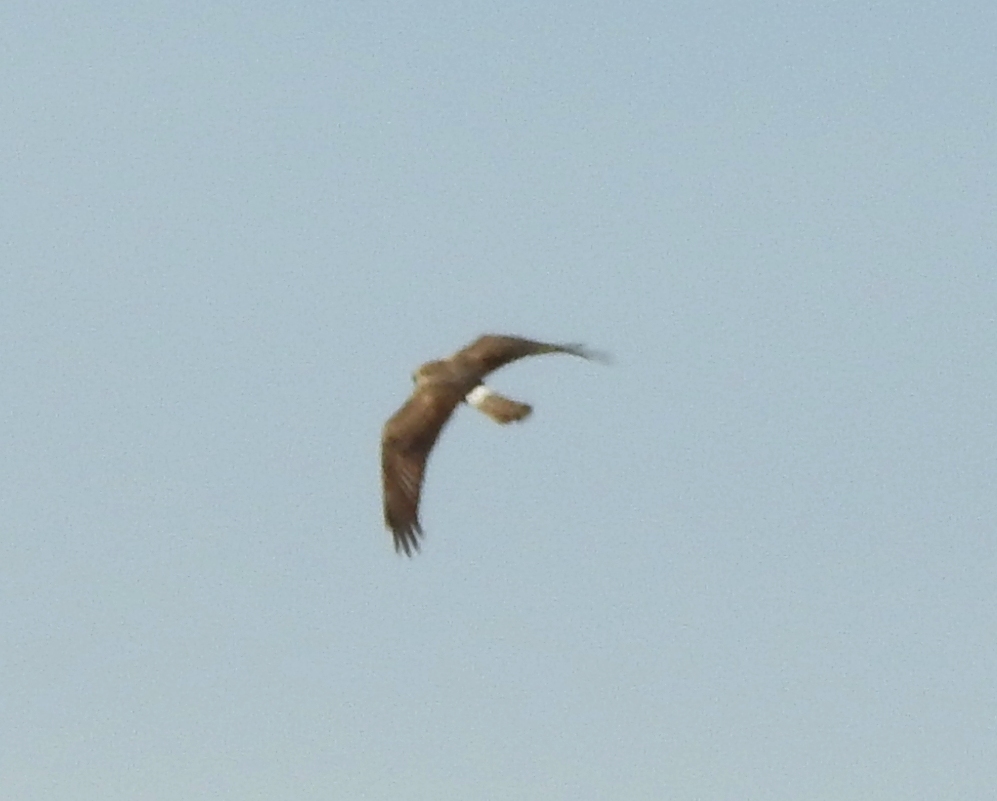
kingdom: Animalia
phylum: Chordata
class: Aves
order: Accipitriformes
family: Accipitridae
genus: Circus
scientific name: Circus cyaneus
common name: Hen harrier
